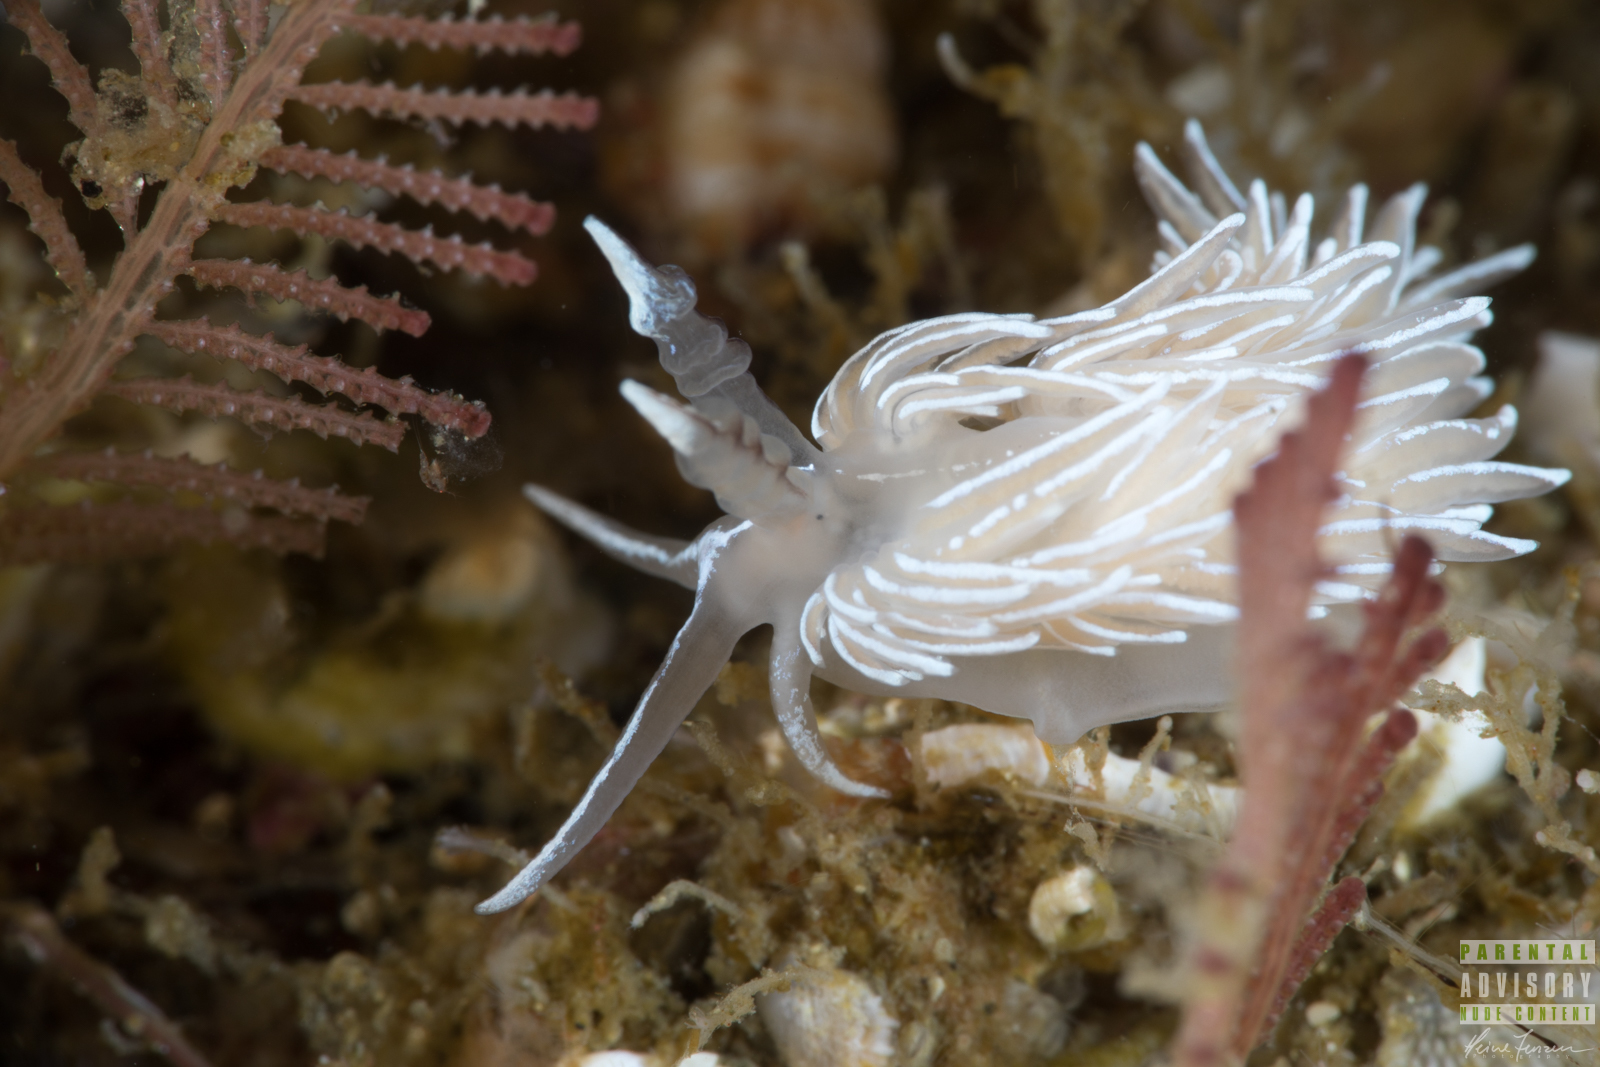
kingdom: Animalia
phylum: Mollusca
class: Gastropoda
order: Nudibranchia
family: Facelinidae
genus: Favorinus
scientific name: Favorinus blianus
